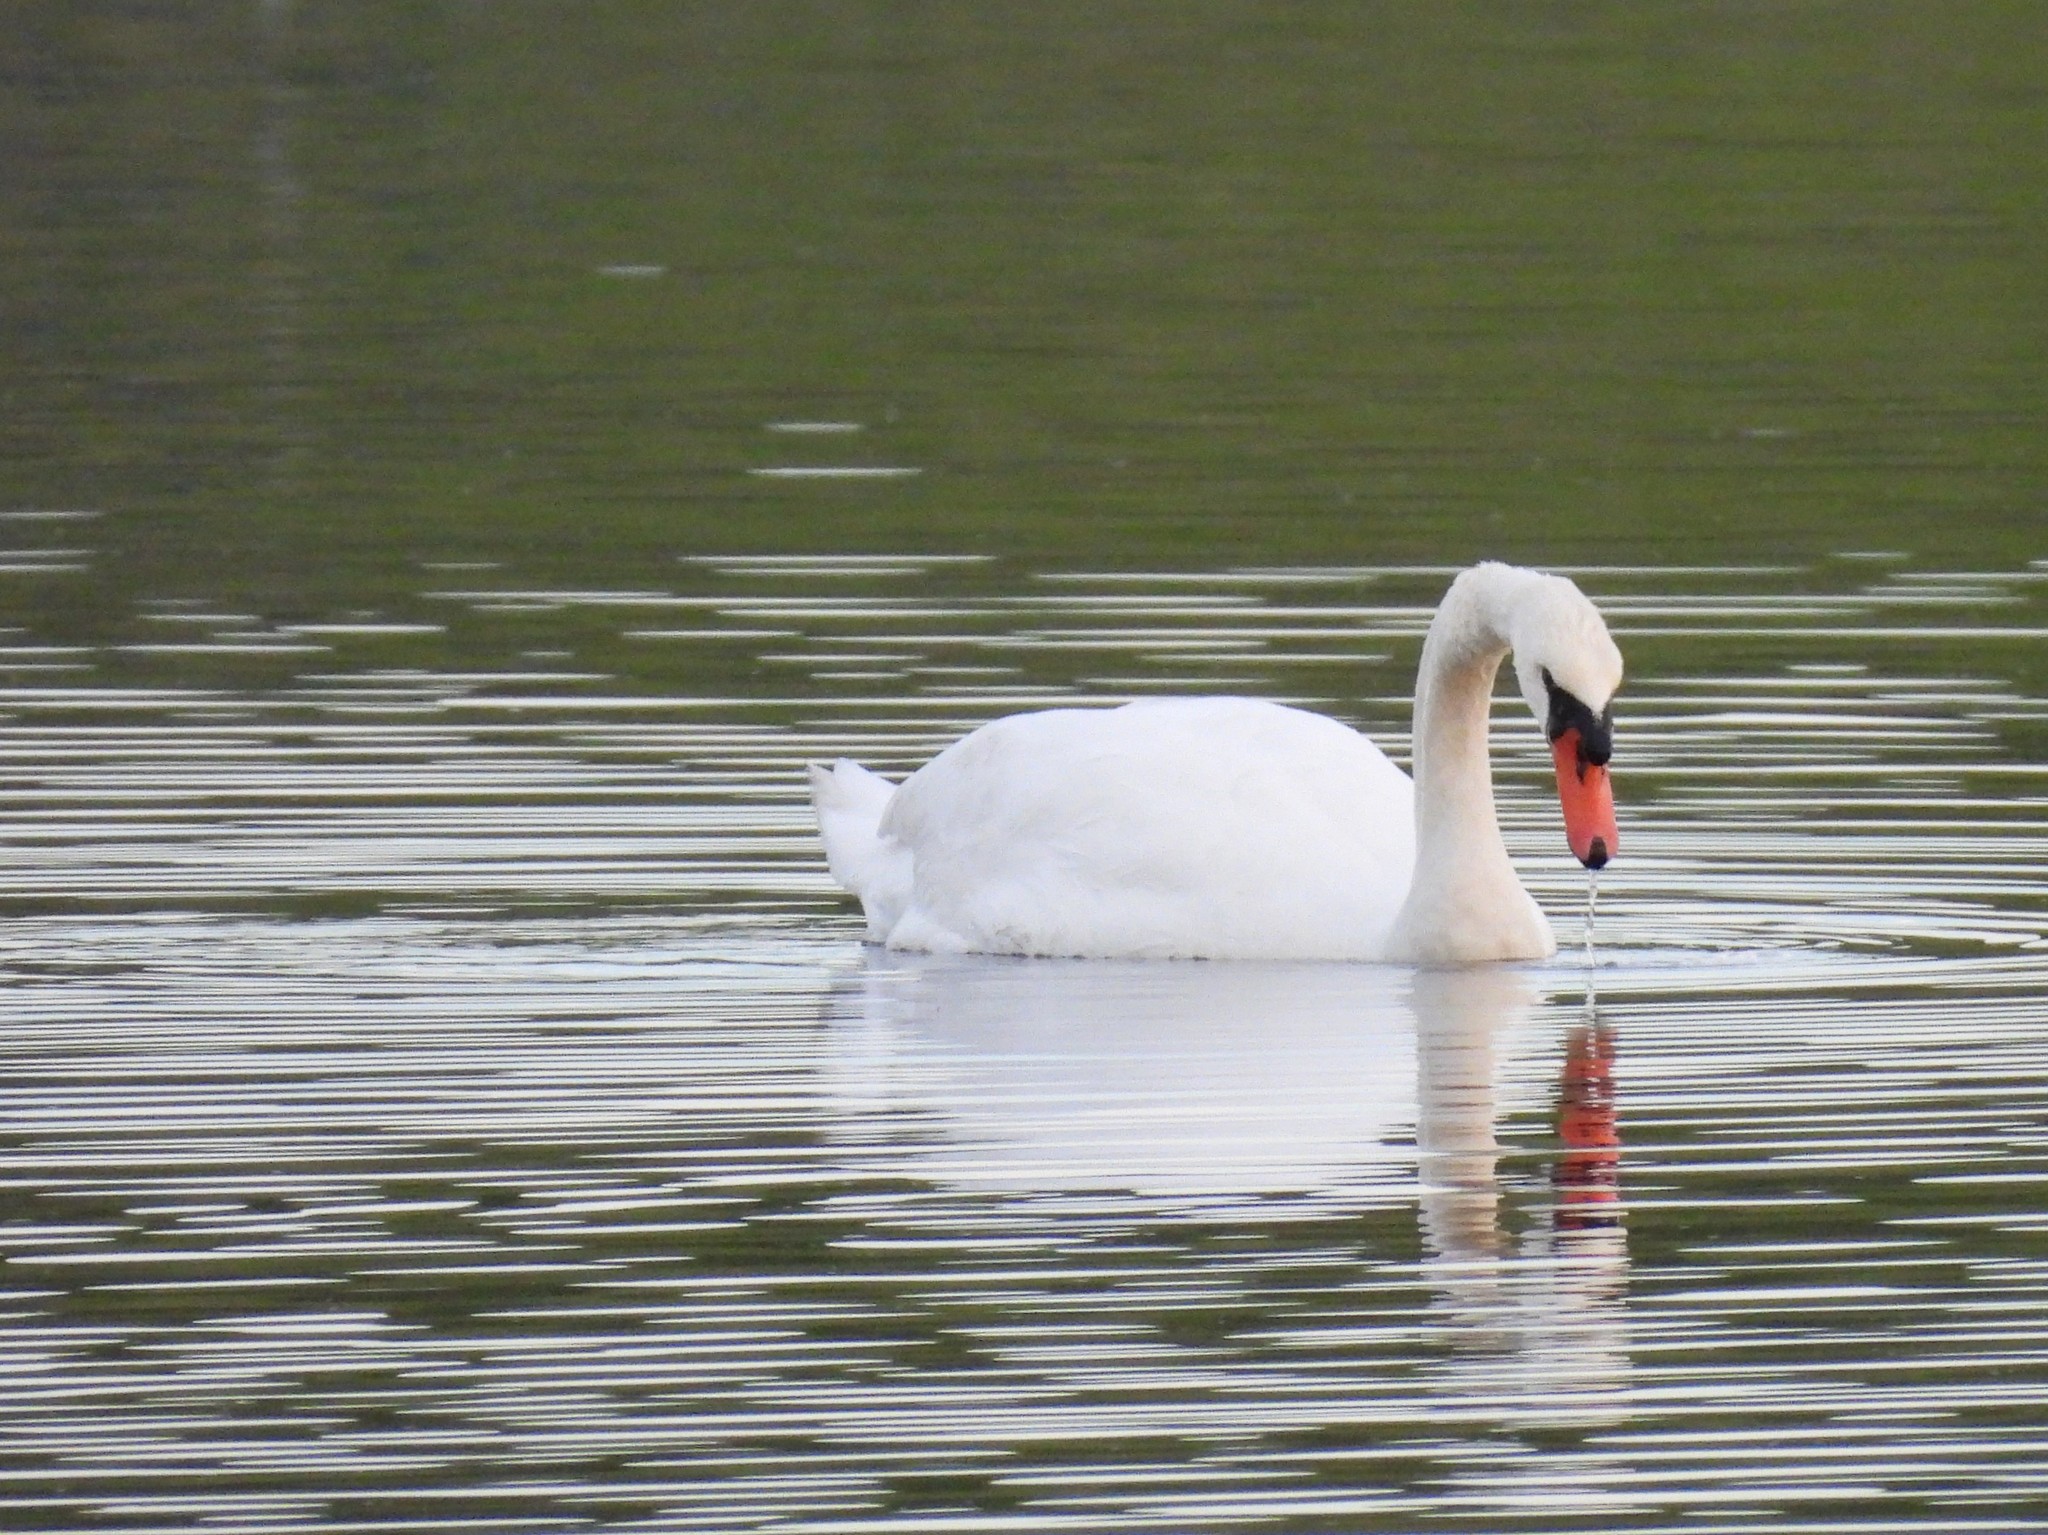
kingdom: Animalia
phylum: Chordata
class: Aves
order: Anseriformes
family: Anatidae
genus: Cygnus
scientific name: Cygnus olor
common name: Mute swan
